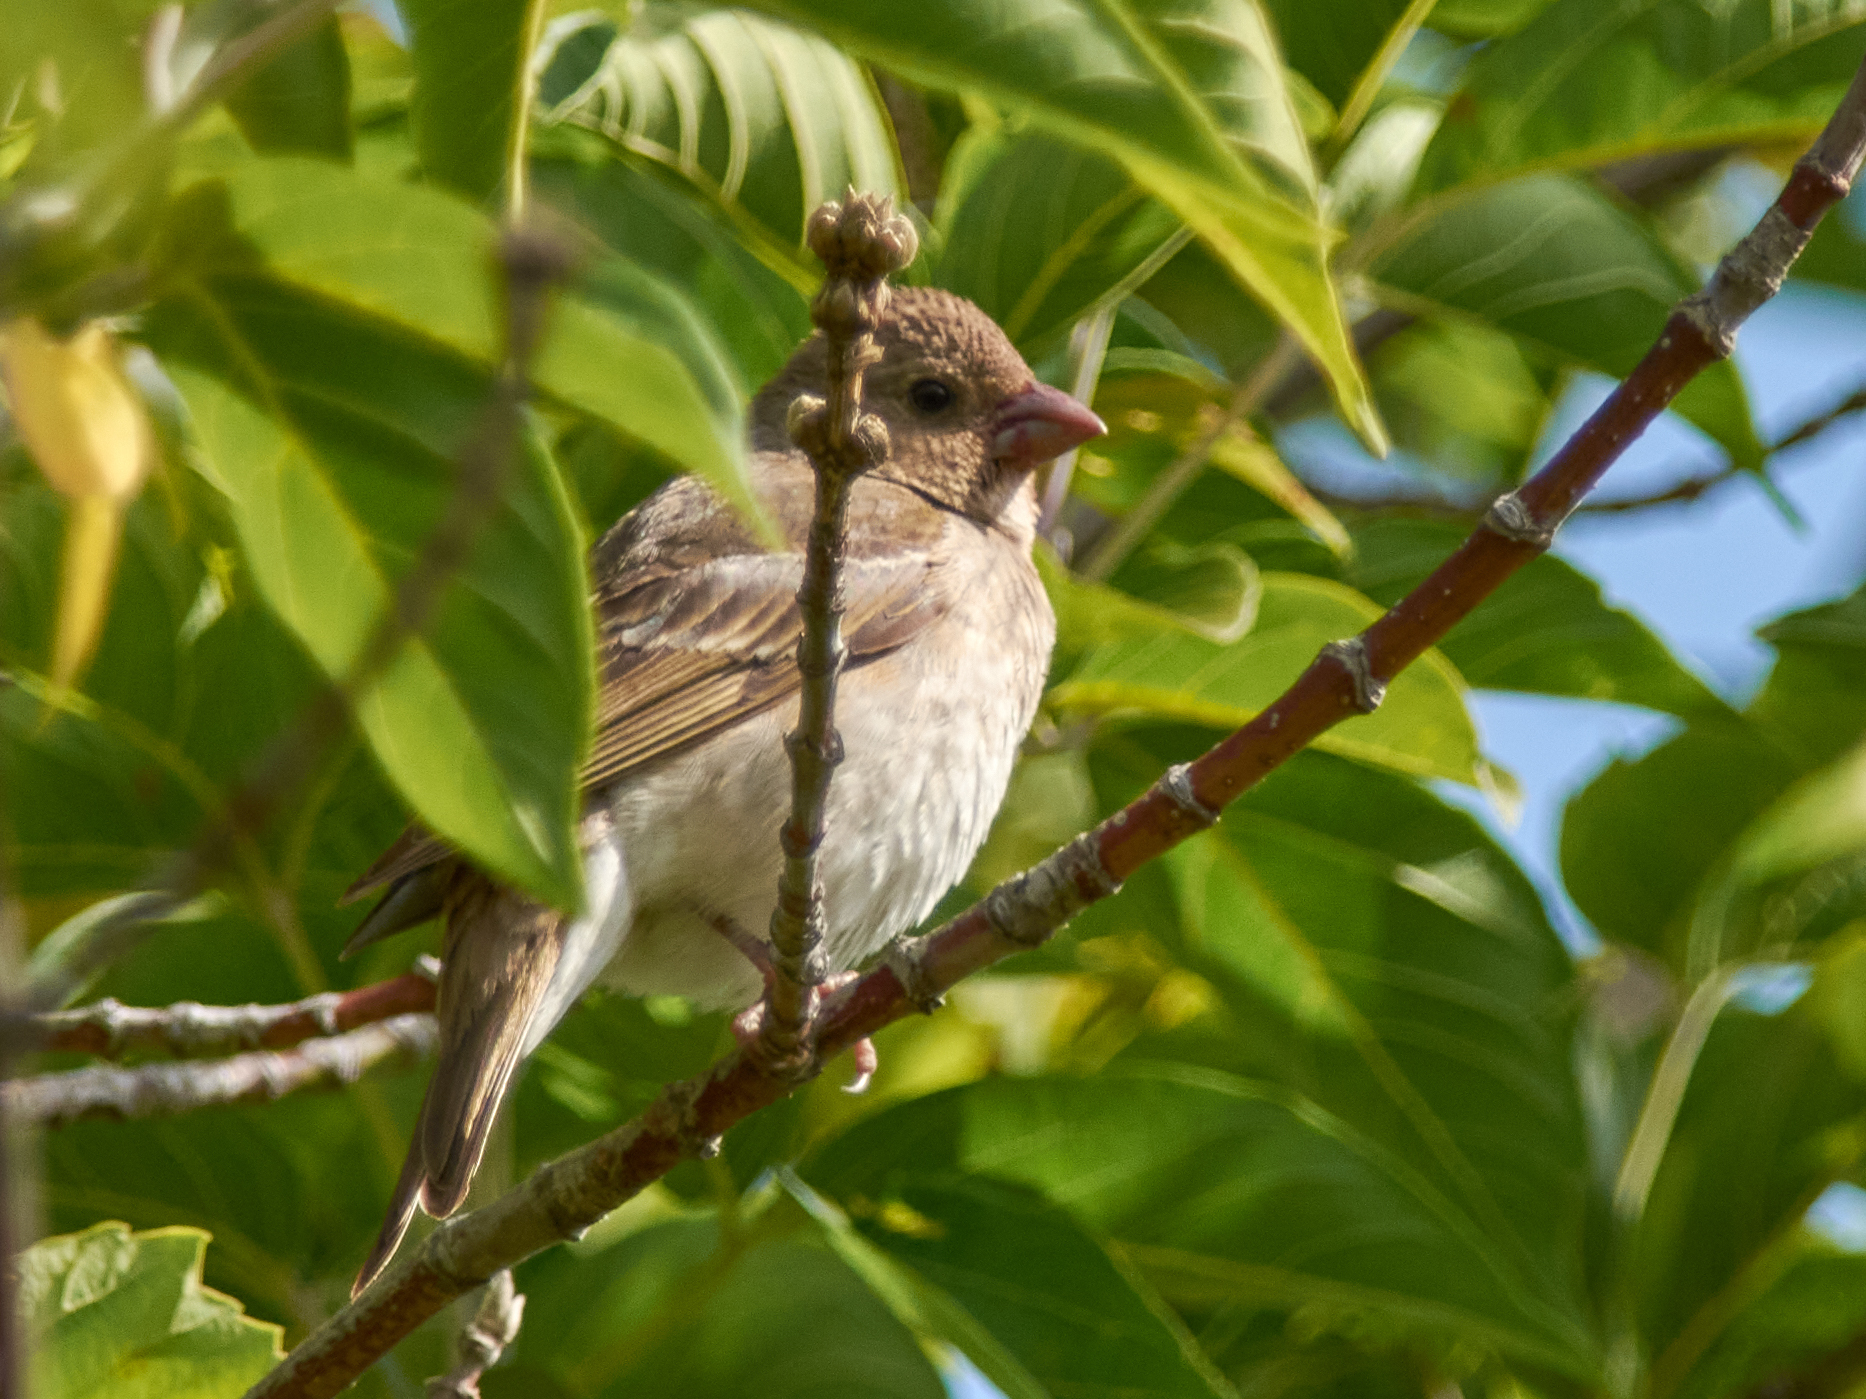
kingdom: Animalia
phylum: Chordata
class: Aves
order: Passeriformes
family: Fringillidae
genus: Carpodacus
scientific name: Carpodacus erythrinus
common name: Common rosefinch
